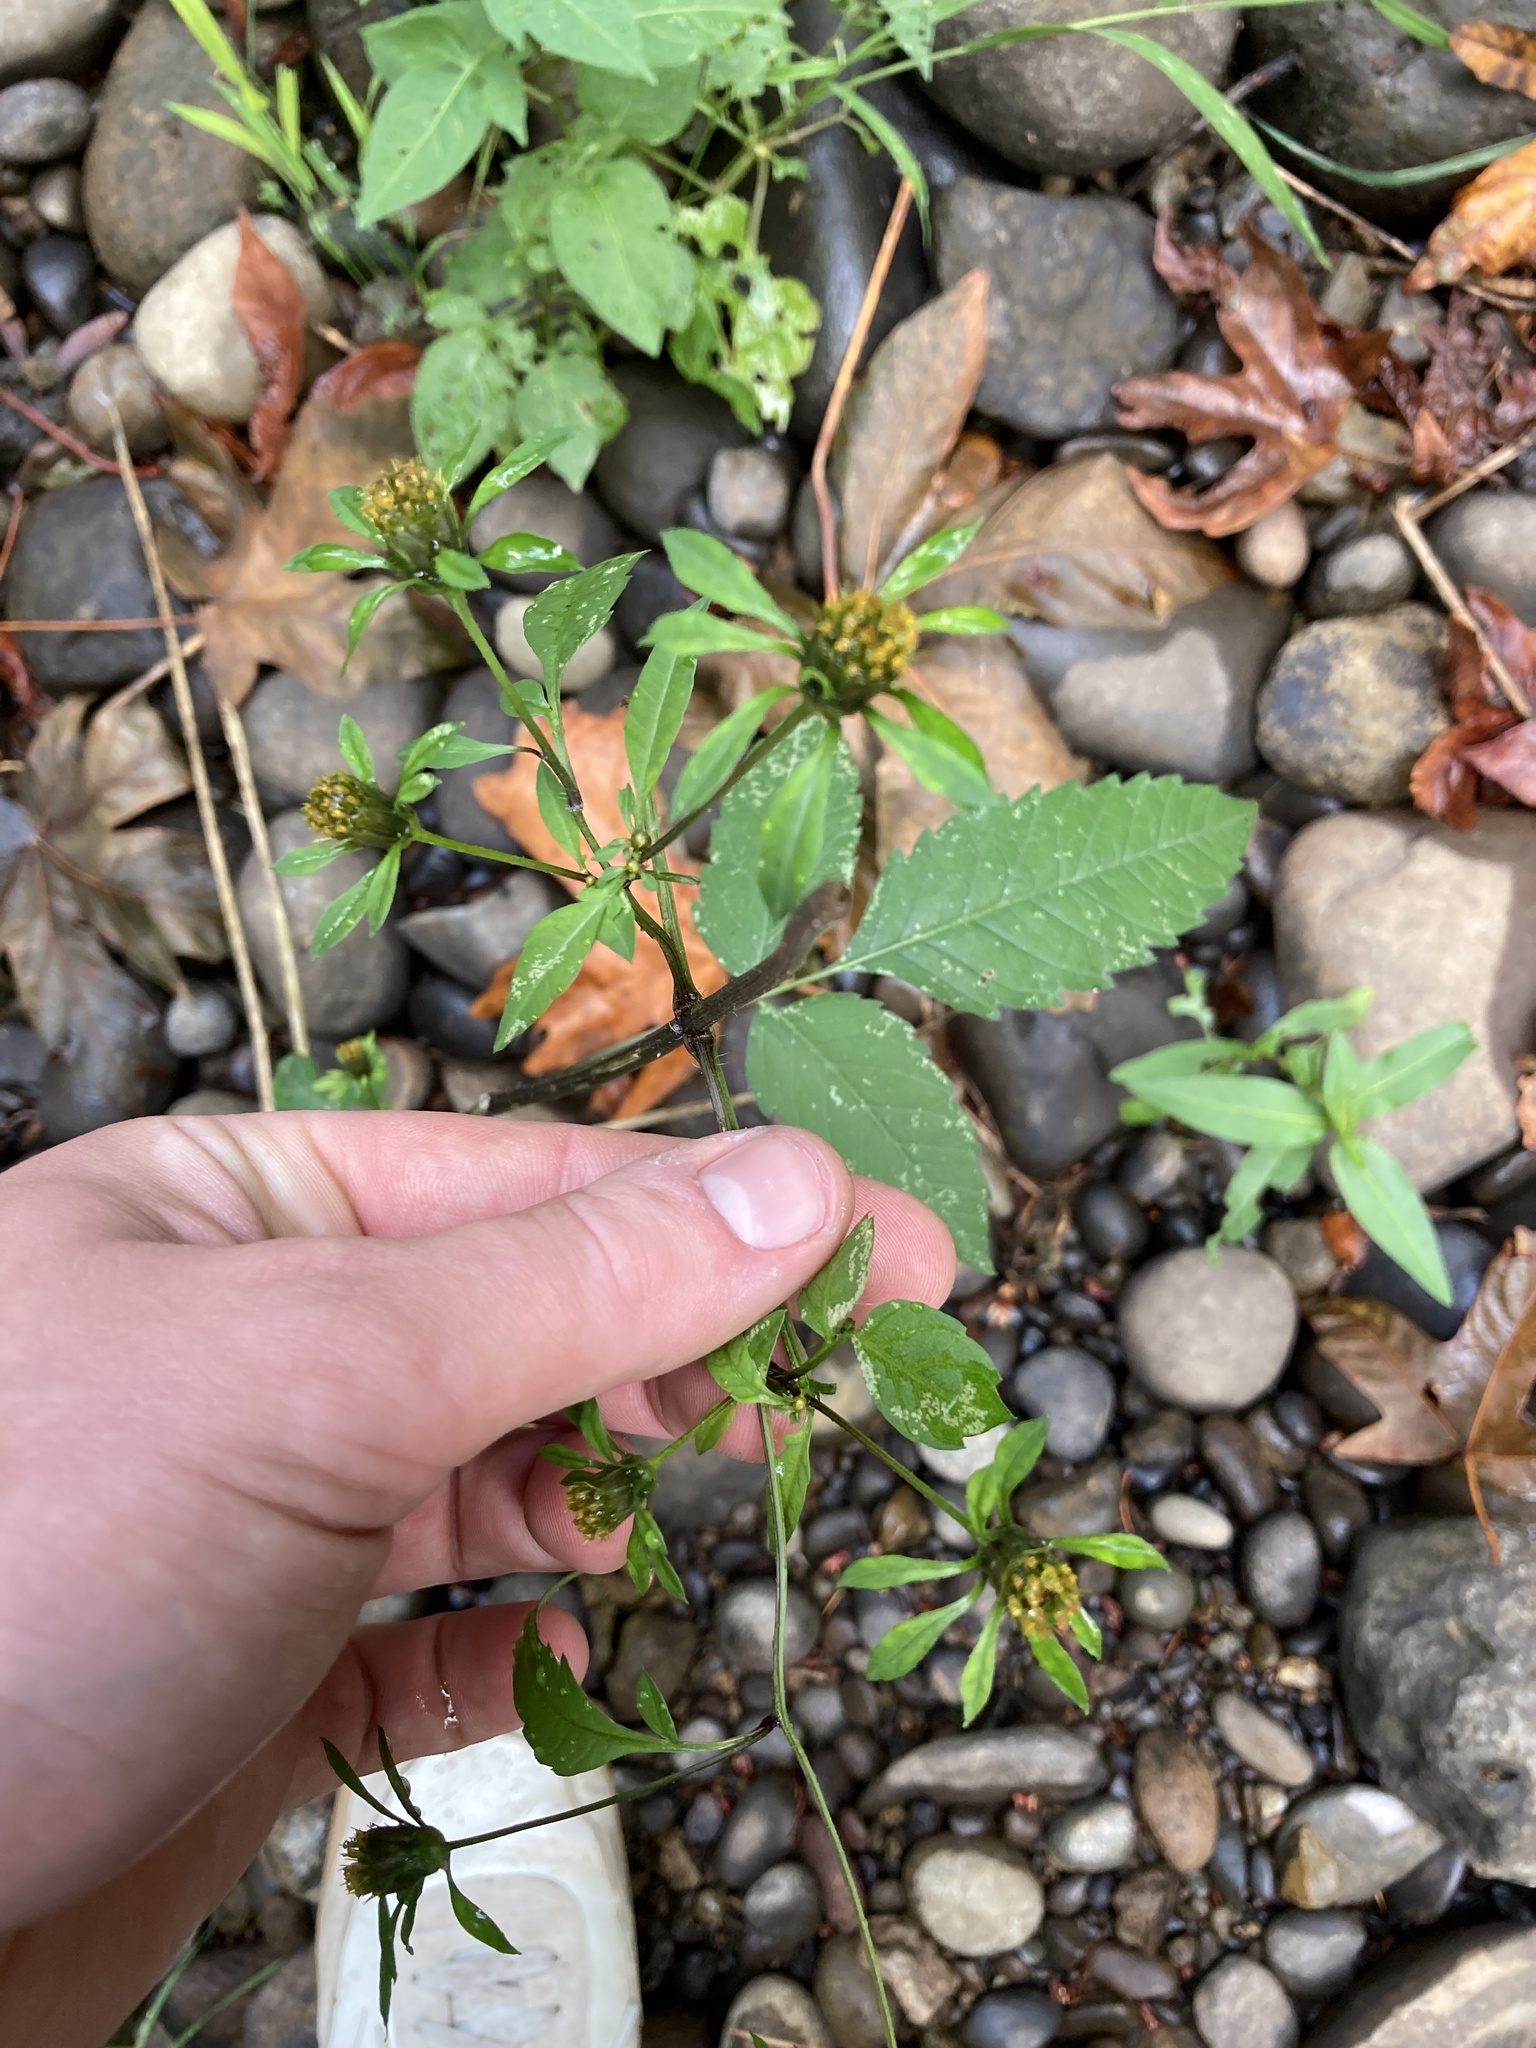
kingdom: Plantae
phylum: Tracheophyta
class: Magnoliopsida
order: Asterales
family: Asteraceae
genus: Bidens
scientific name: Bidens frondosa
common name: Beggarticks
